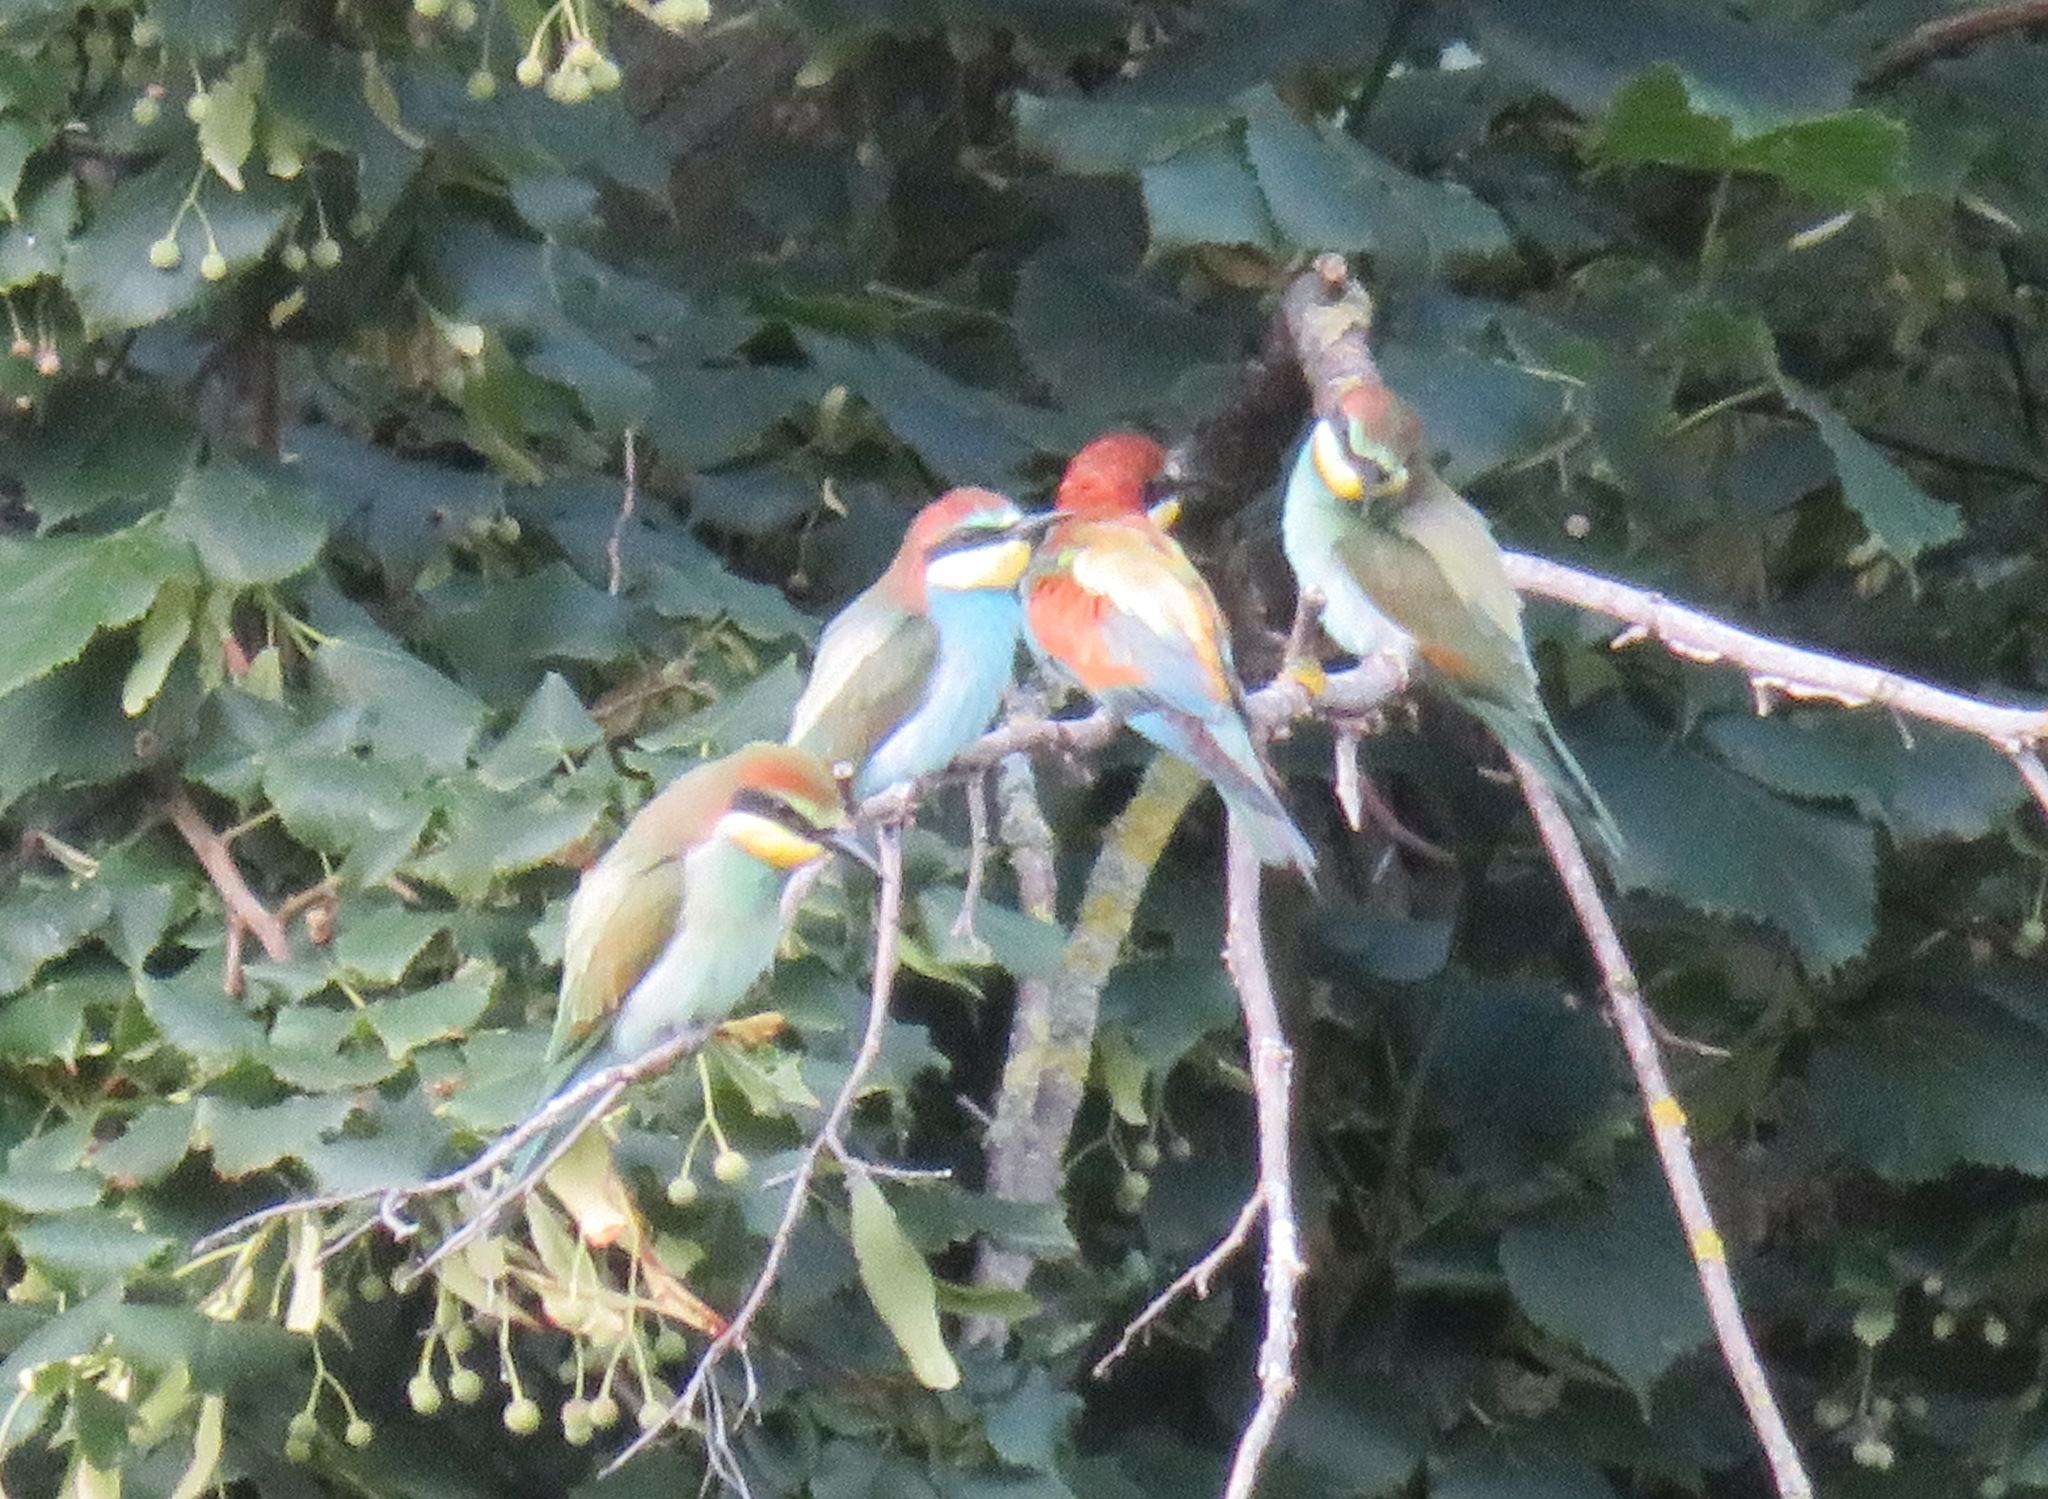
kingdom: Animalia
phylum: Chordata
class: Aves
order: Coraciiformes
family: Meropidae
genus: Merops
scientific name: Merops apiaster
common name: European bee-eater
